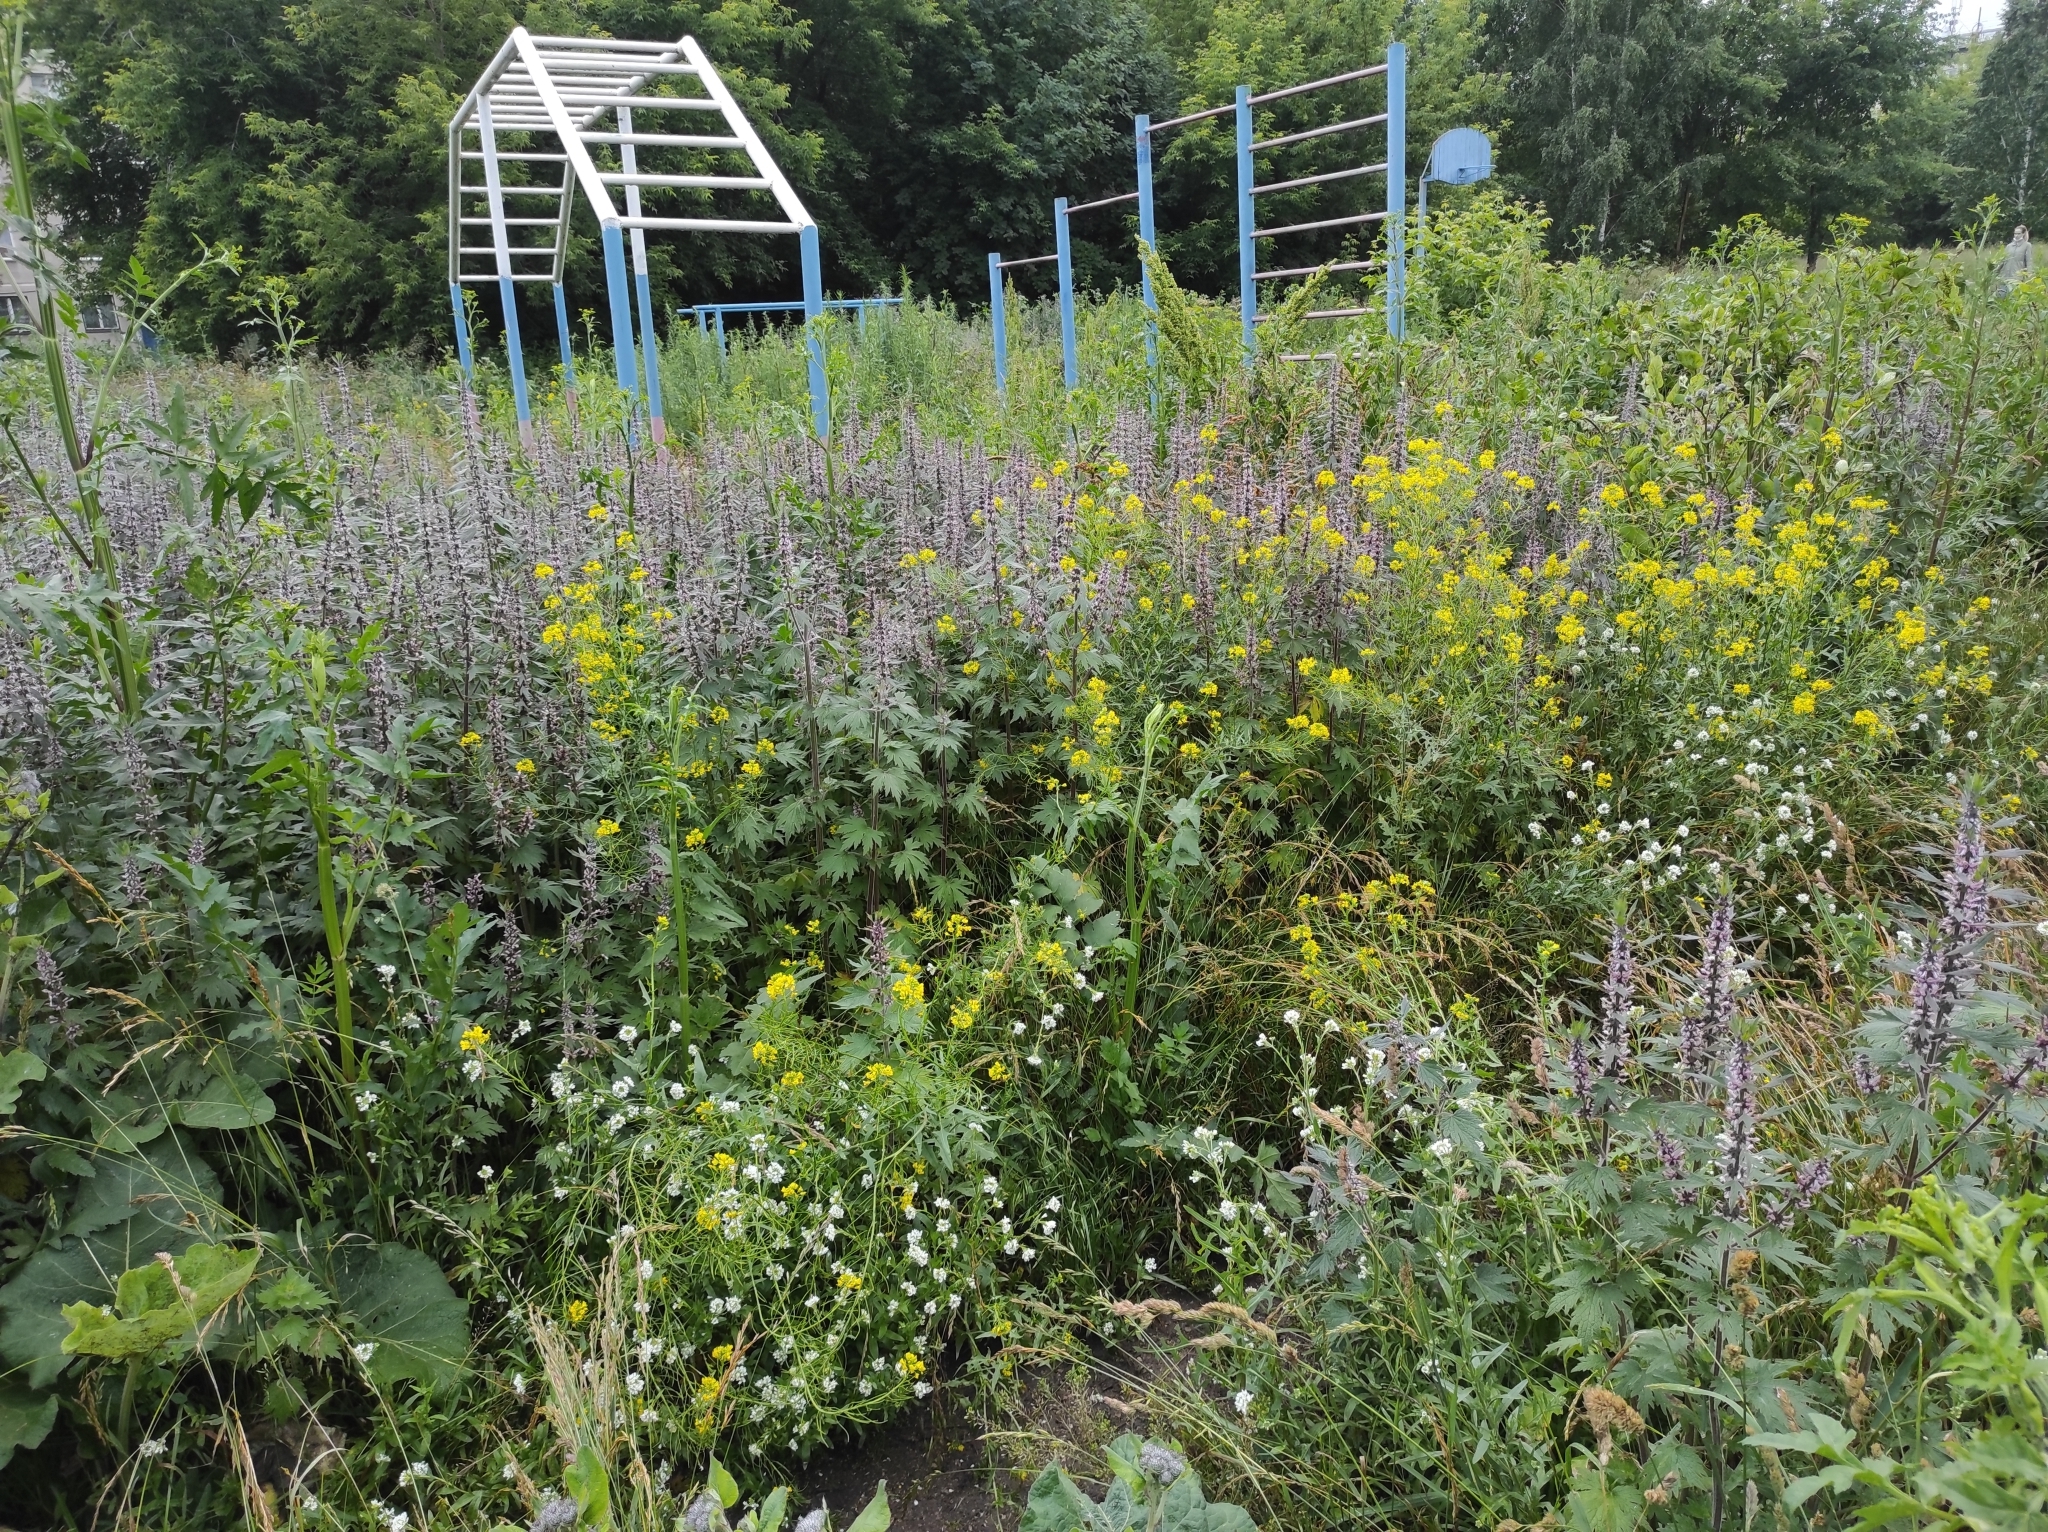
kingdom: Plantae
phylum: Tracheophyta
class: Magnoliopsida
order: Brassicales
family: Brassicaceae
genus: Berteroa
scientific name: Berteroa incana
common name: Hoary alison
